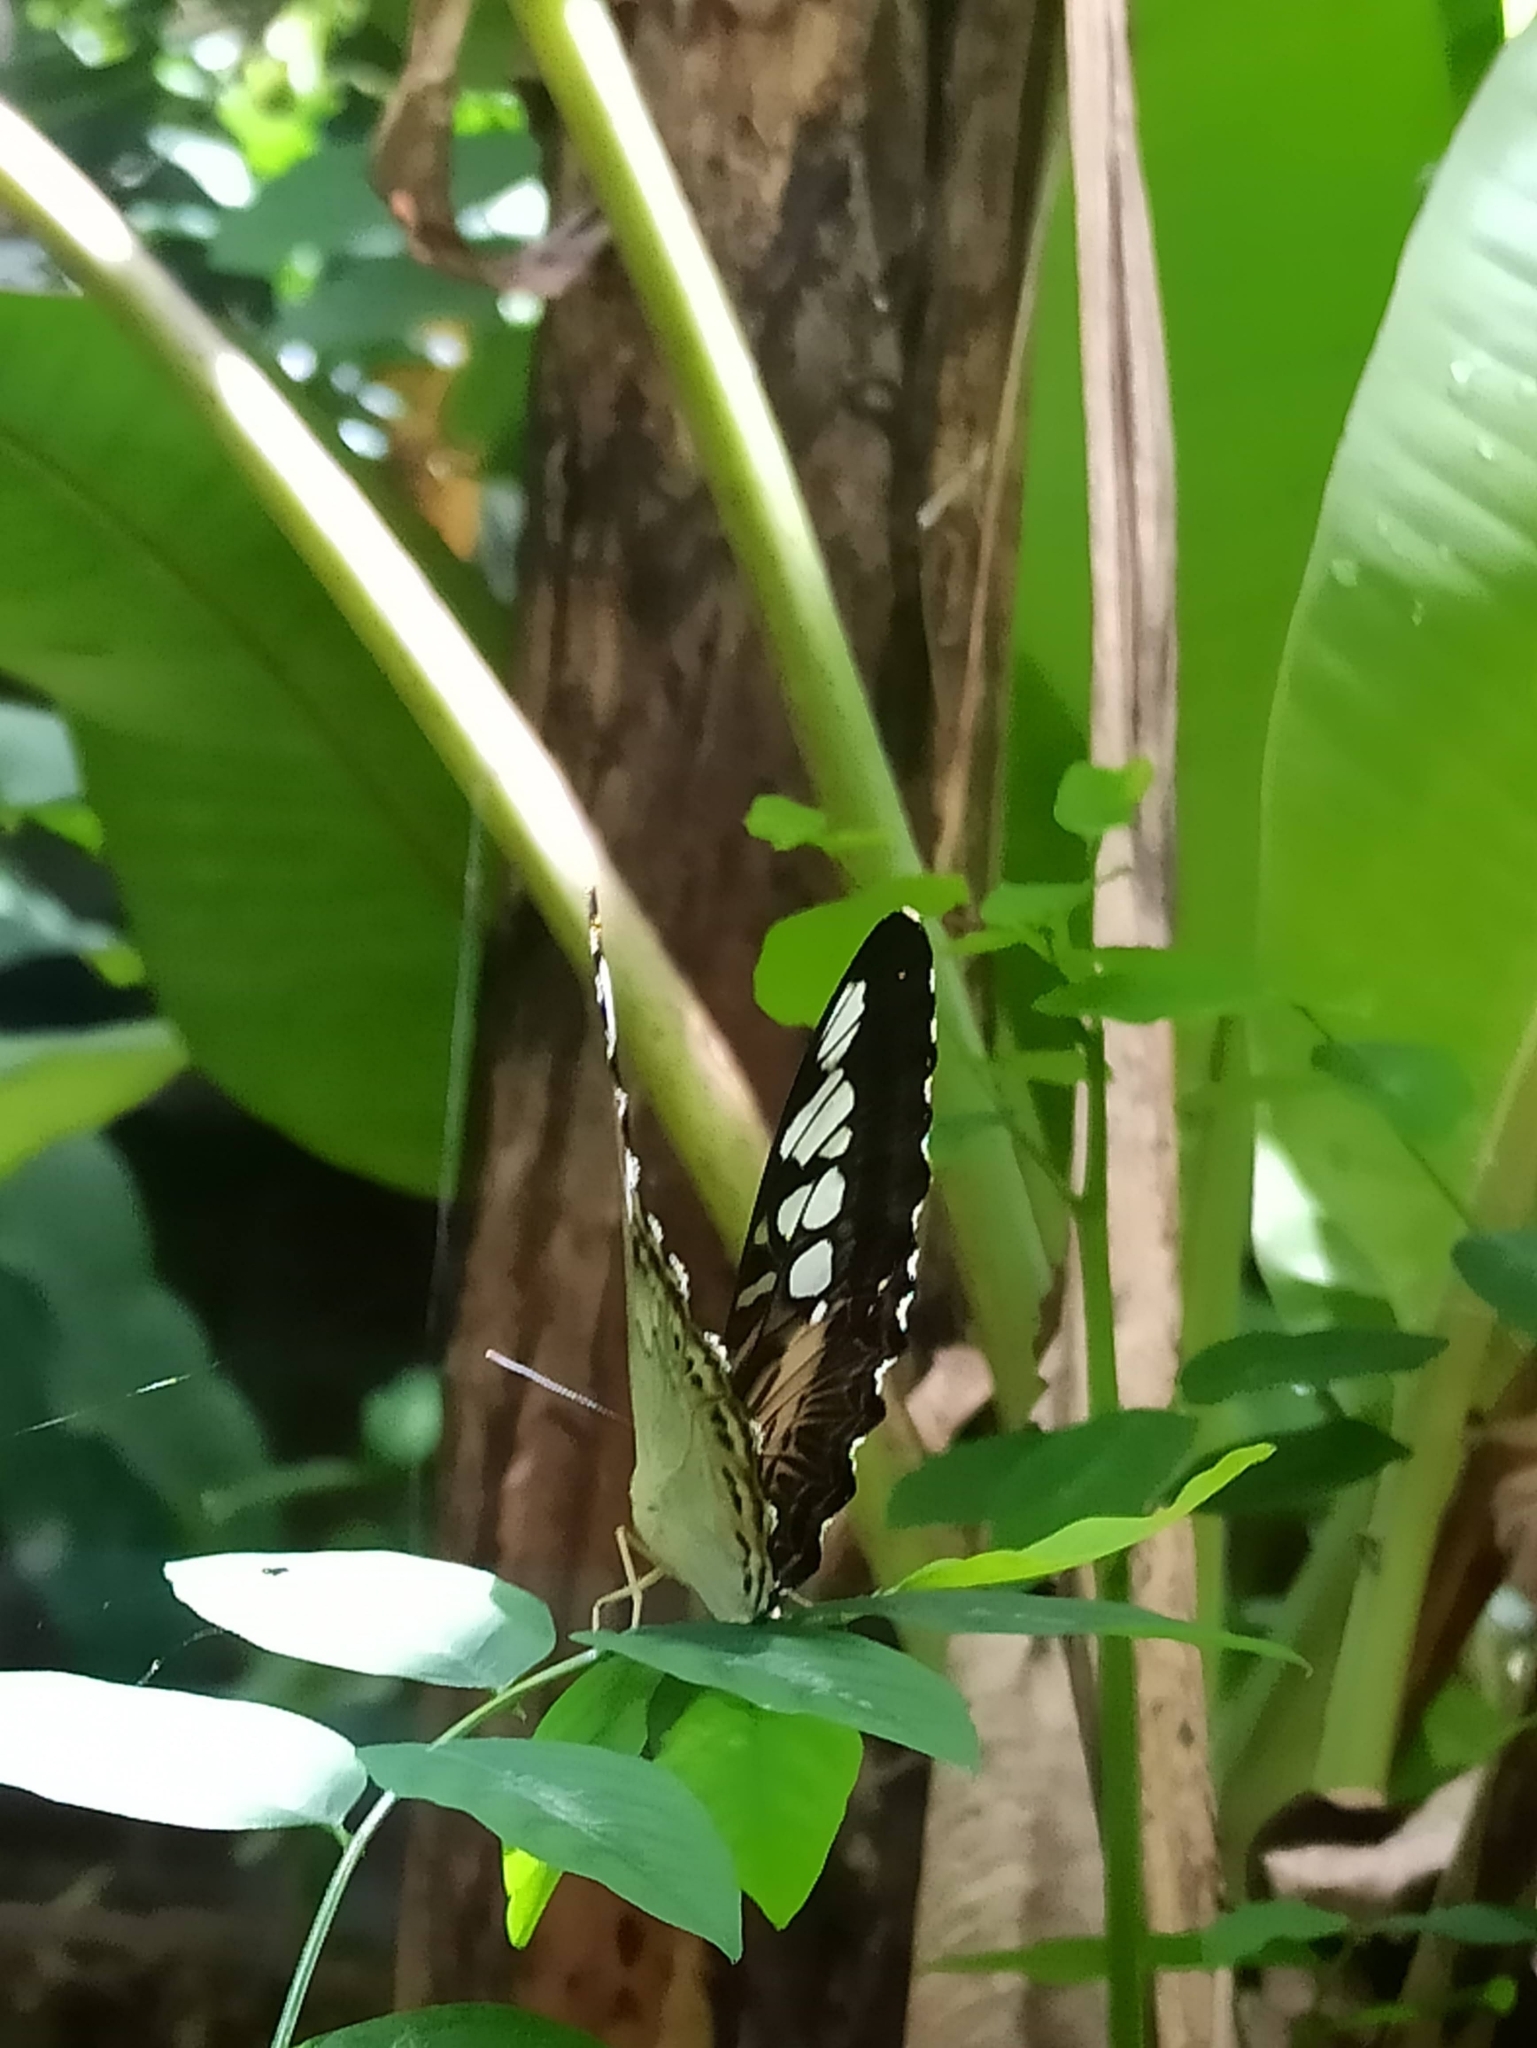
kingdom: Animalia
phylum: Arthropoda
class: Insecta
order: Lepidoptera
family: Nymphalidae
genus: Kallima
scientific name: Kallima sylvia
